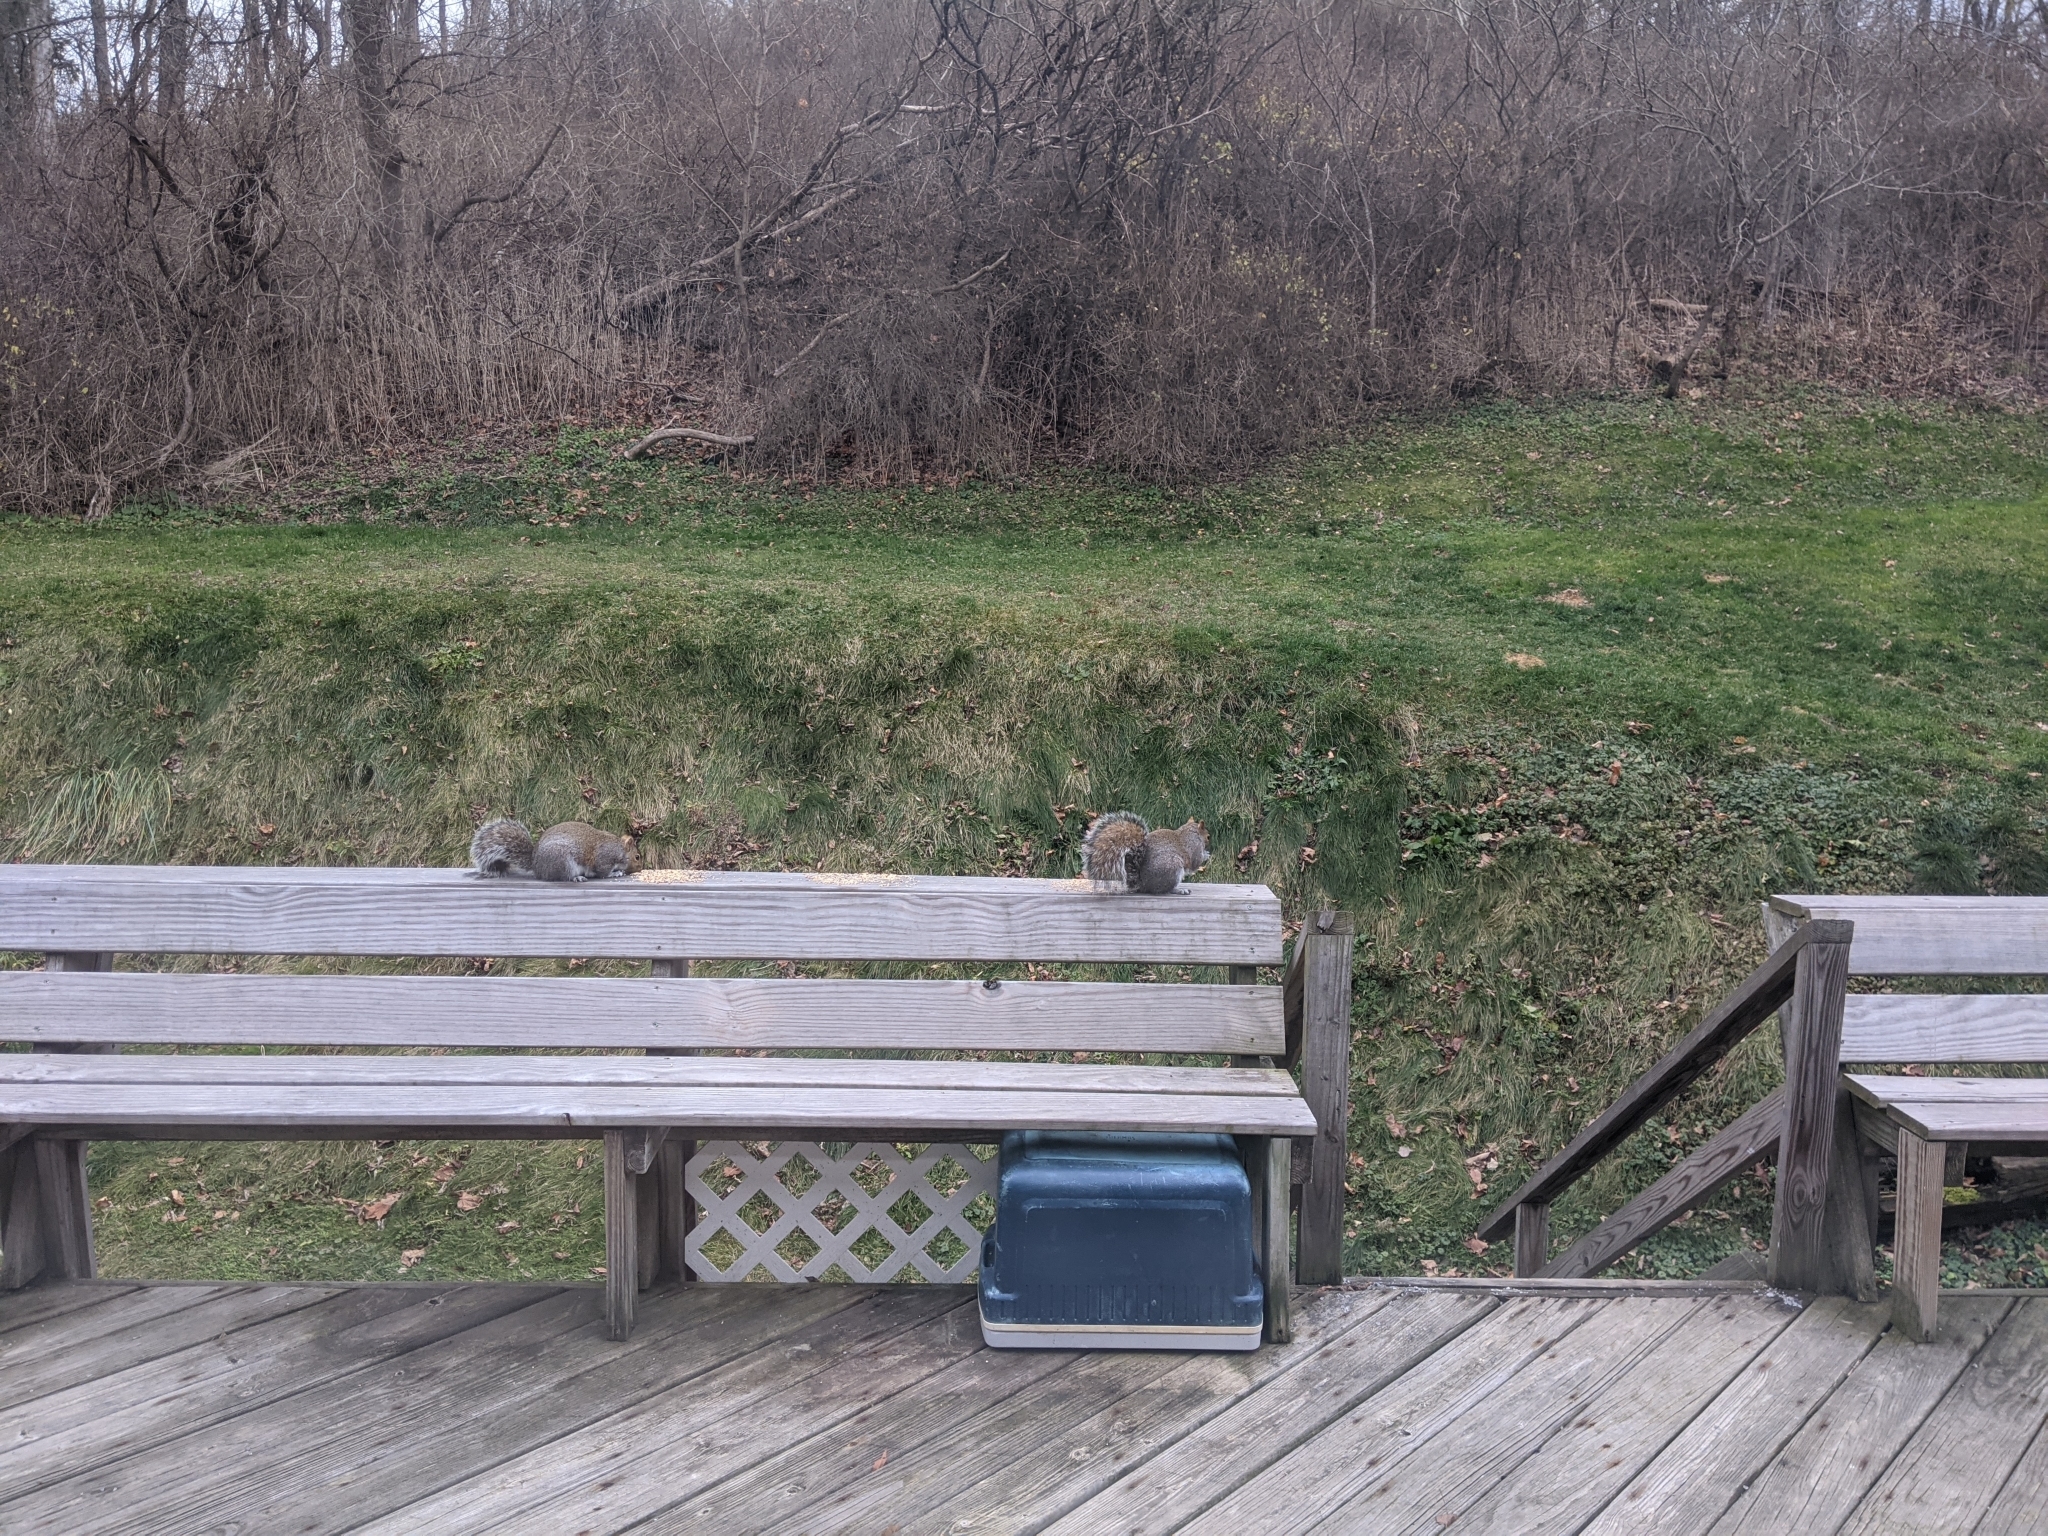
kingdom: Animalia
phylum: Chordata
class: Mammalia
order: Rodentia
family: Sciuridae
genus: Sciurus
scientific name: Sciurus carolinensis
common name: Eastern gray squirrel
